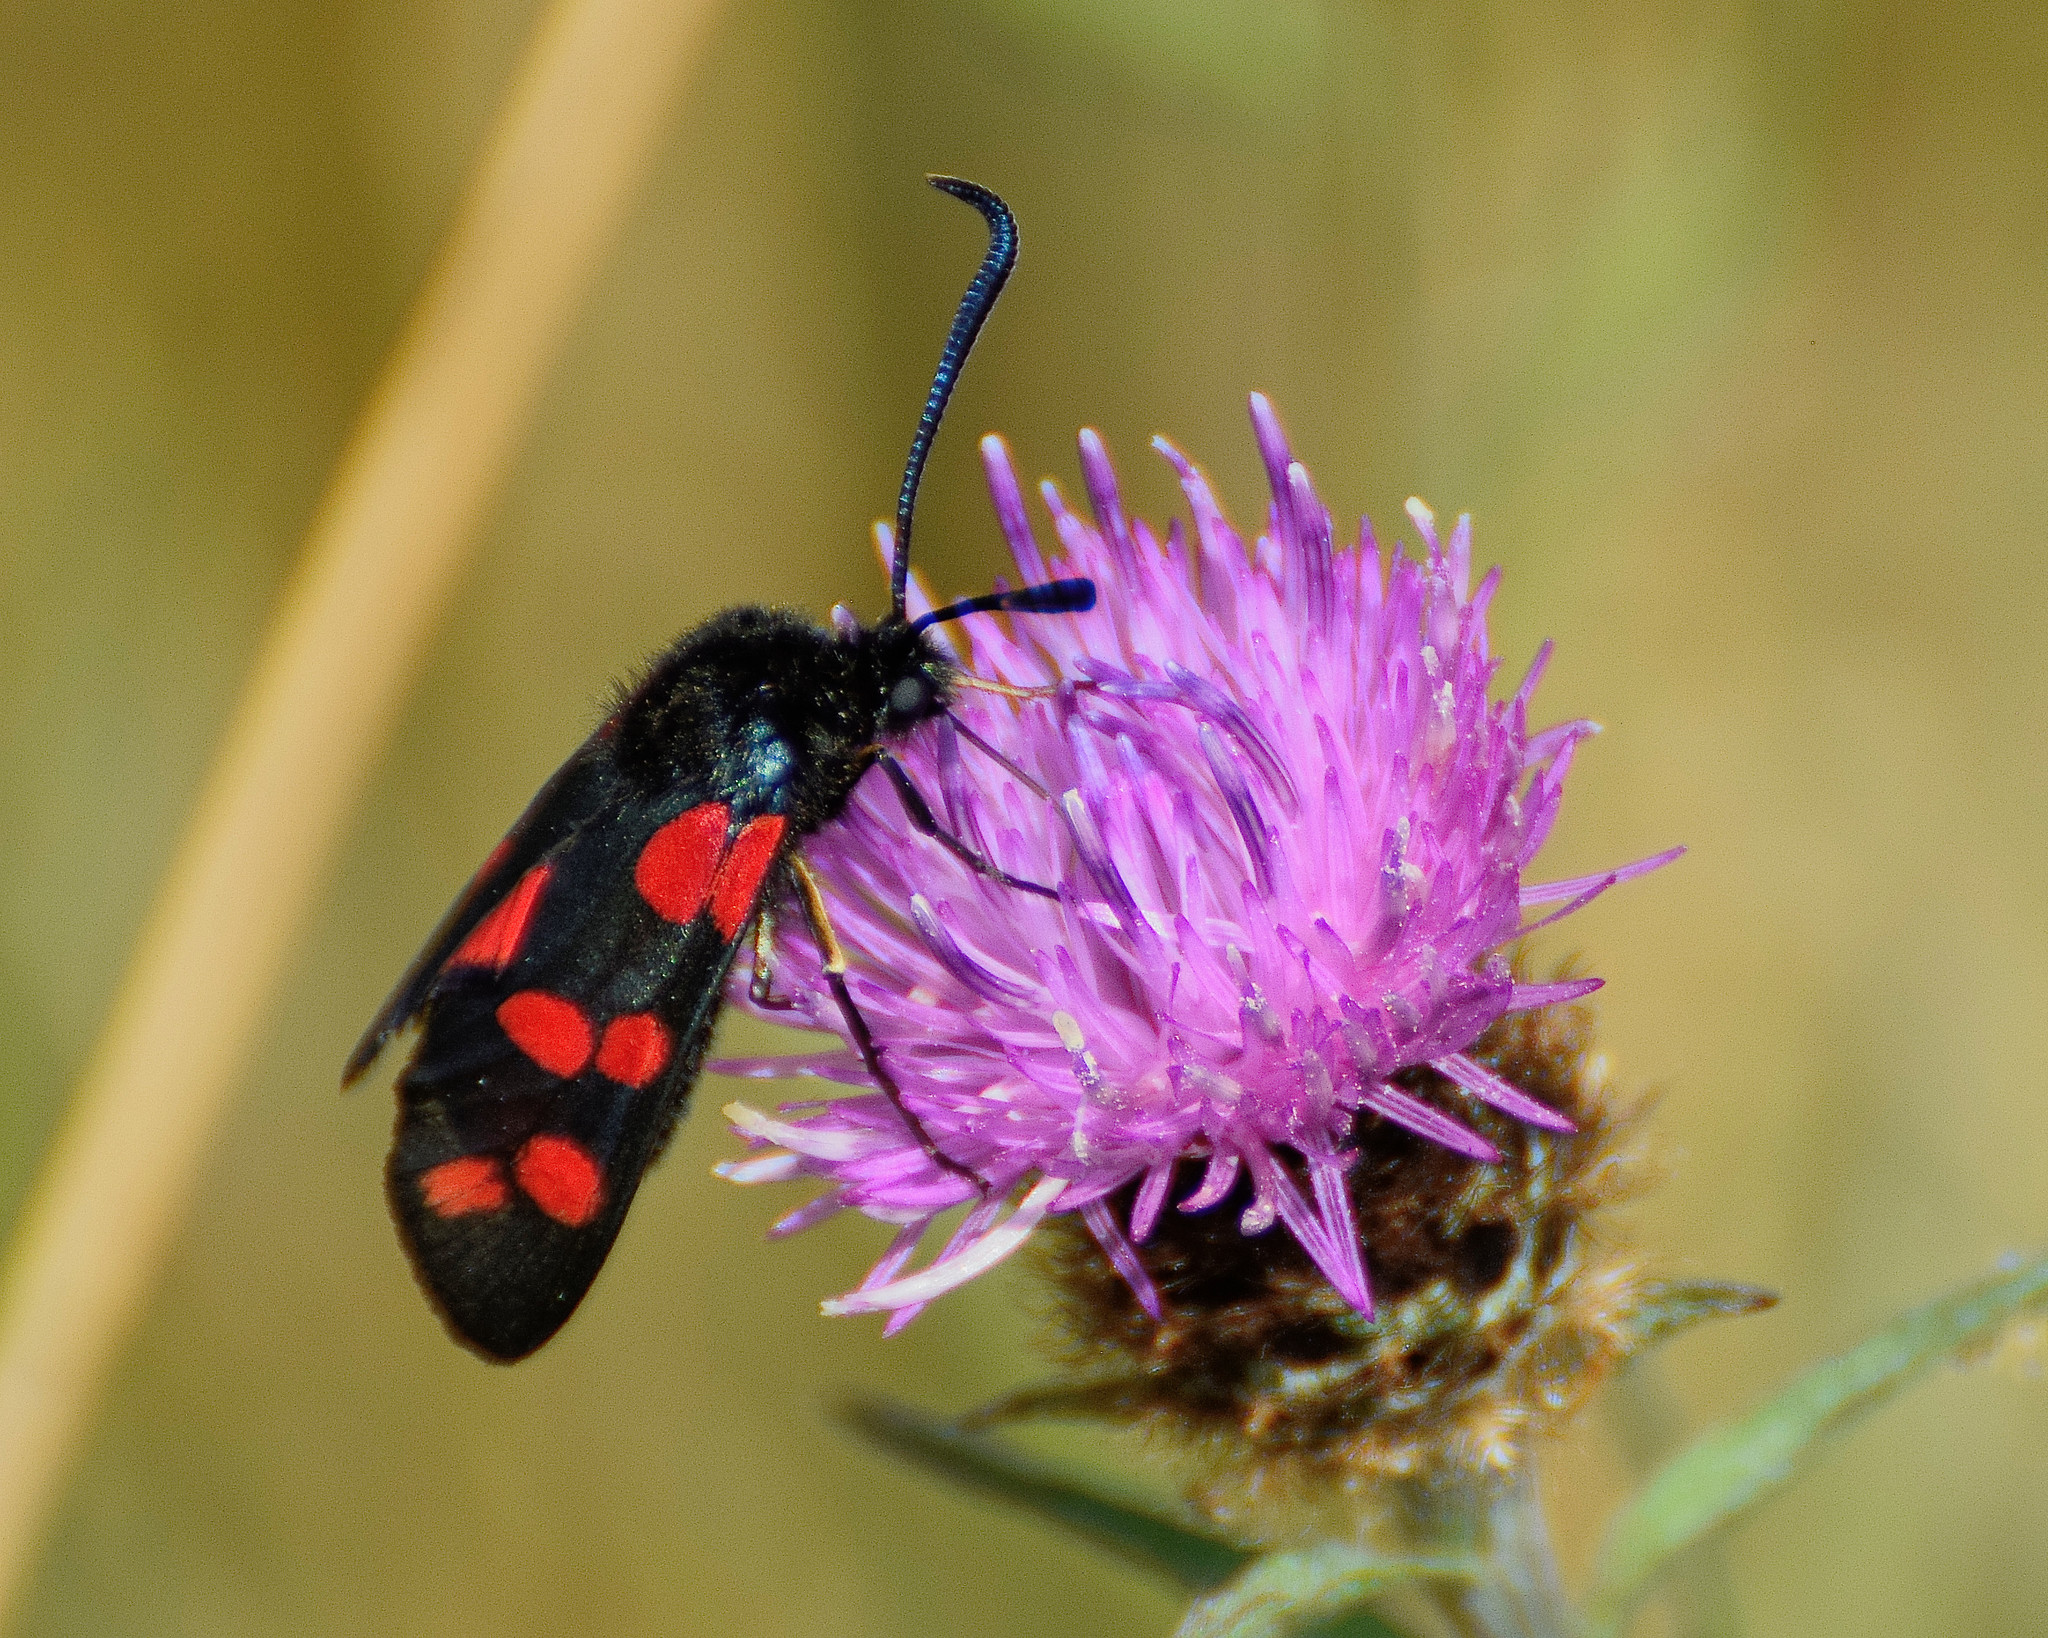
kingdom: Animalia
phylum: Arthropoda
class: Insecta
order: Lepidoptera
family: Zygaenidae
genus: Zygaena
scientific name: Zygaena filipendulae
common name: Six-spot burnet
